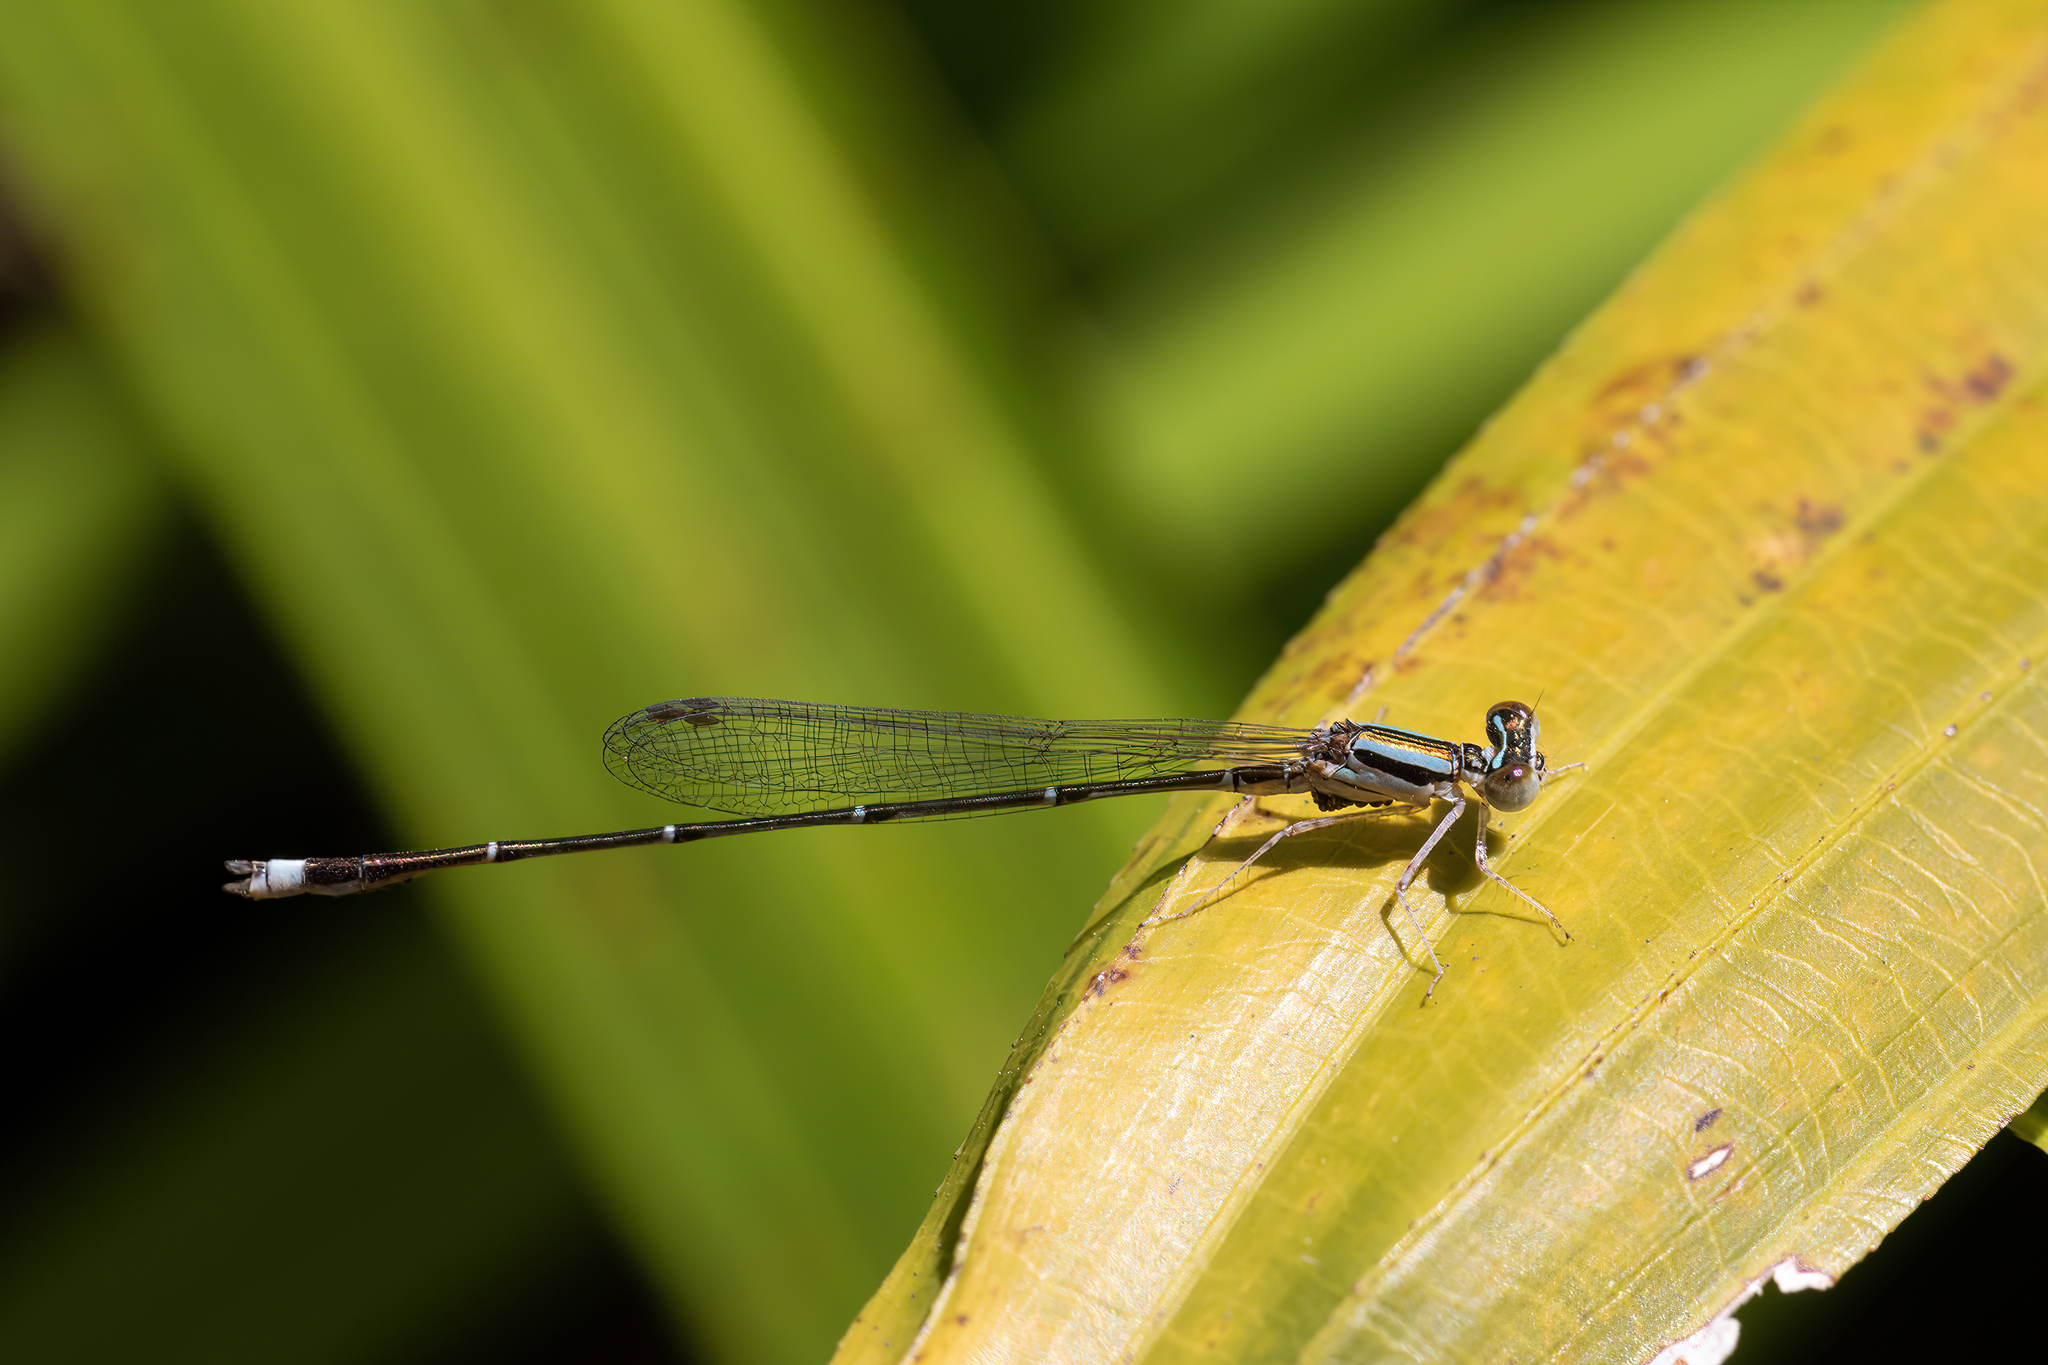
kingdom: Animalia
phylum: Arthropoda
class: Insecta
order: Odonata
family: Coenagrionidae
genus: Enallagma
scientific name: Enallagma signatum
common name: Orange bluet
